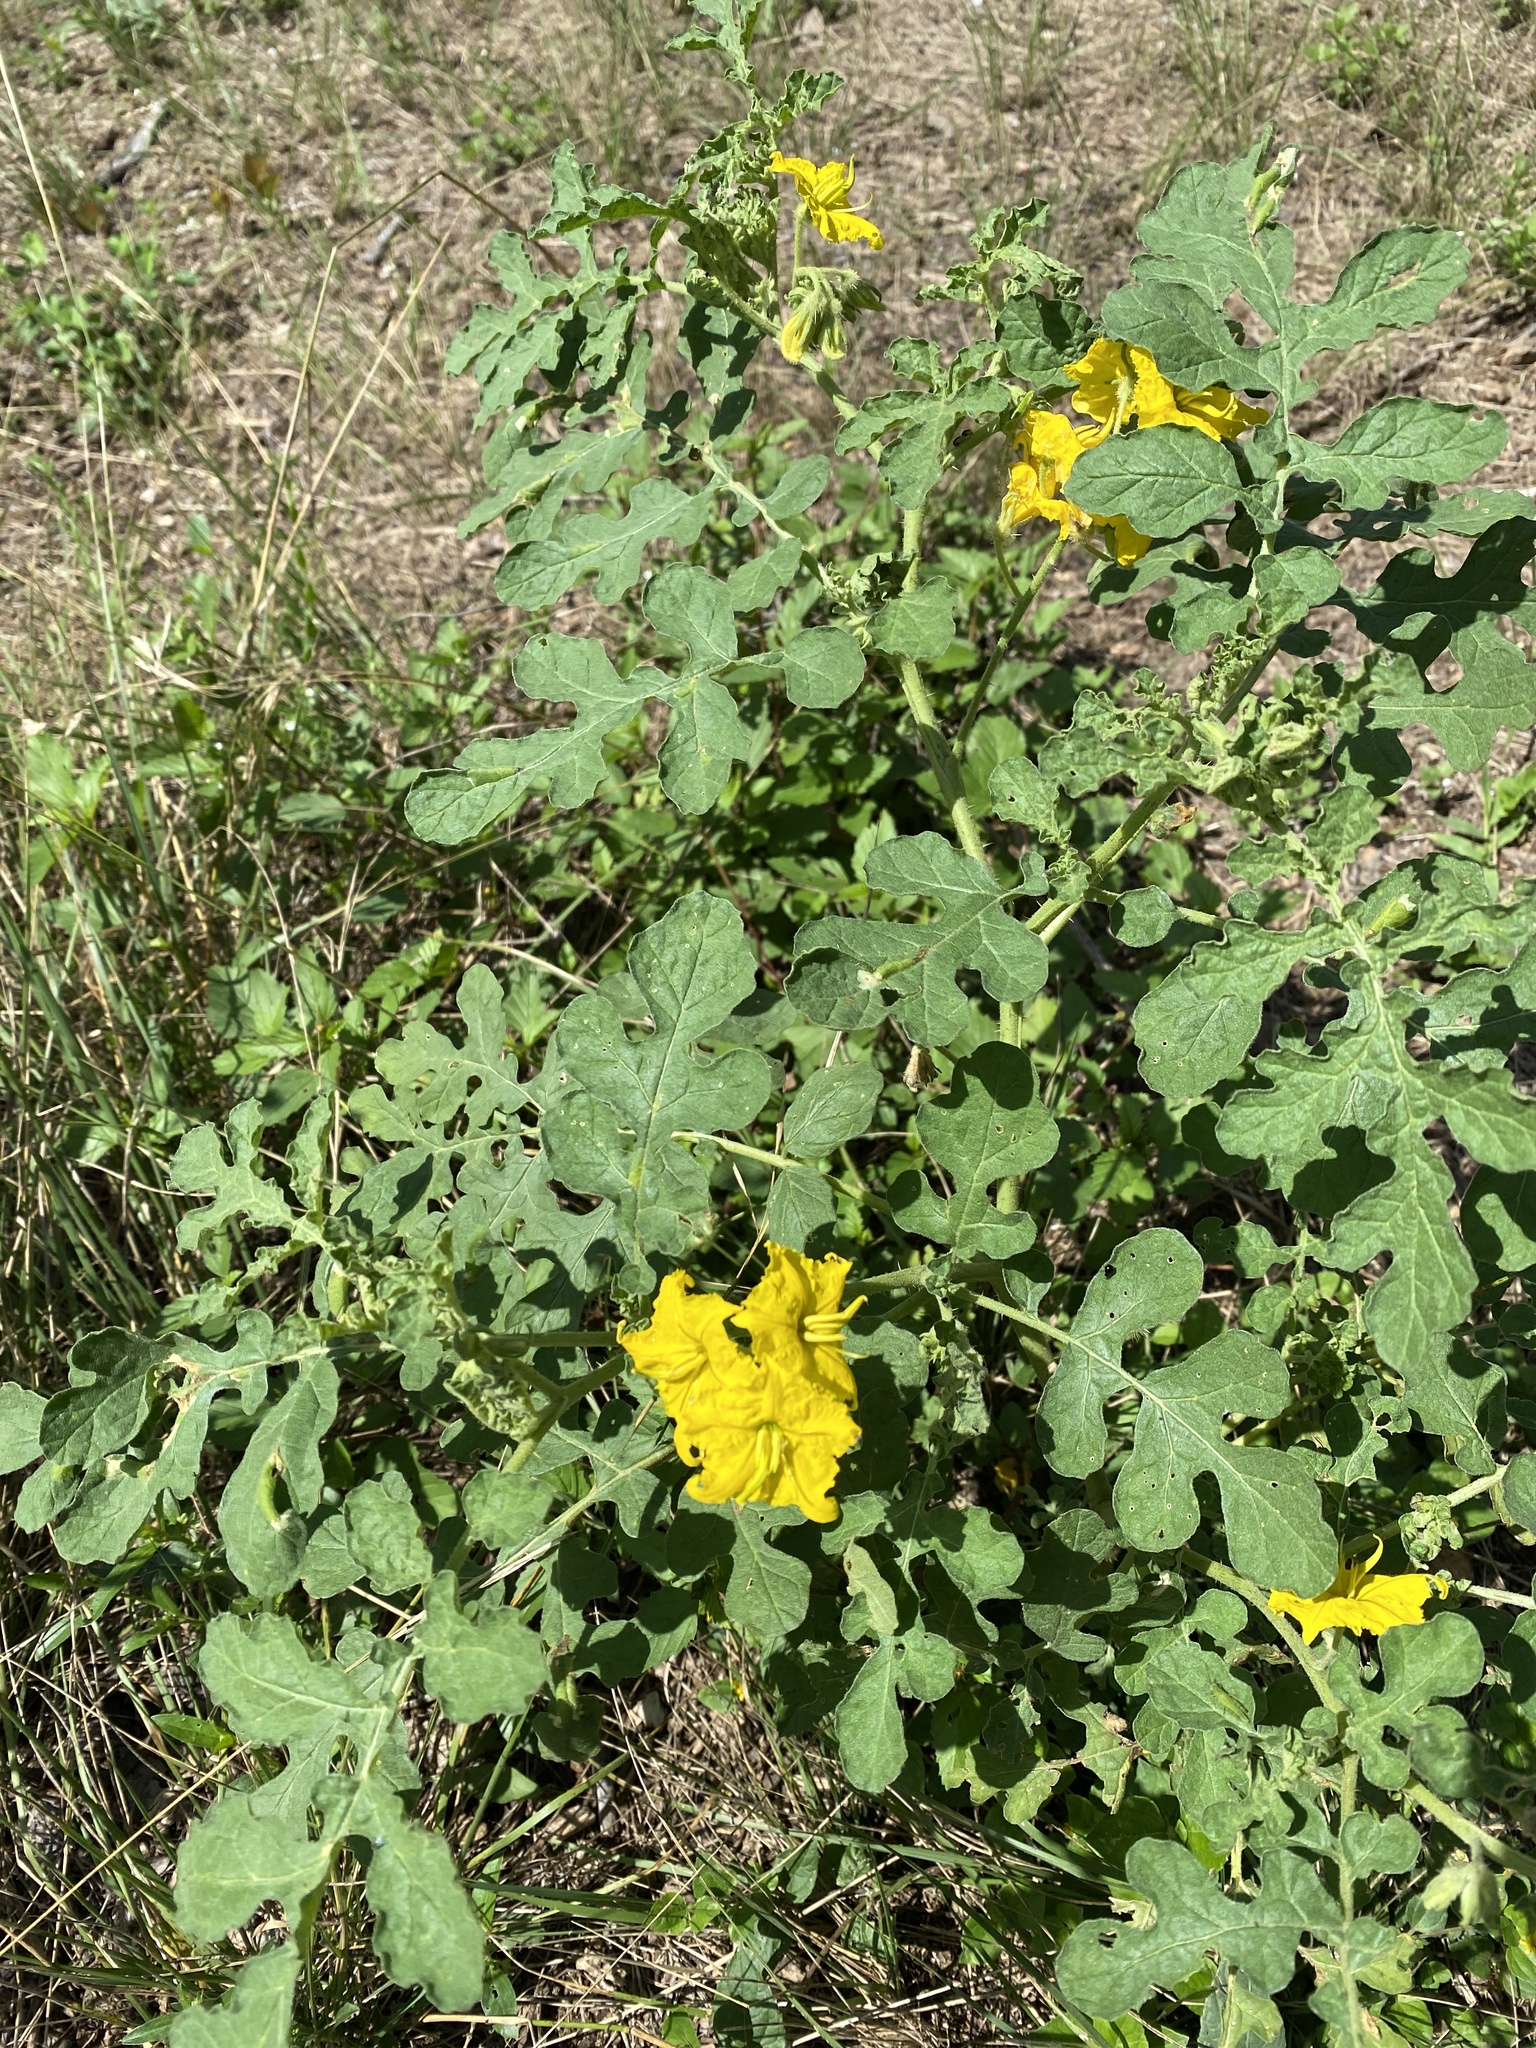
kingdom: Plantae
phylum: Tracheophyta
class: Magnoliopsida
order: Solanales
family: Solanaceae
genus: Solanum
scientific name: Solanum angustifolium
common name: Buffalobur nightshade
